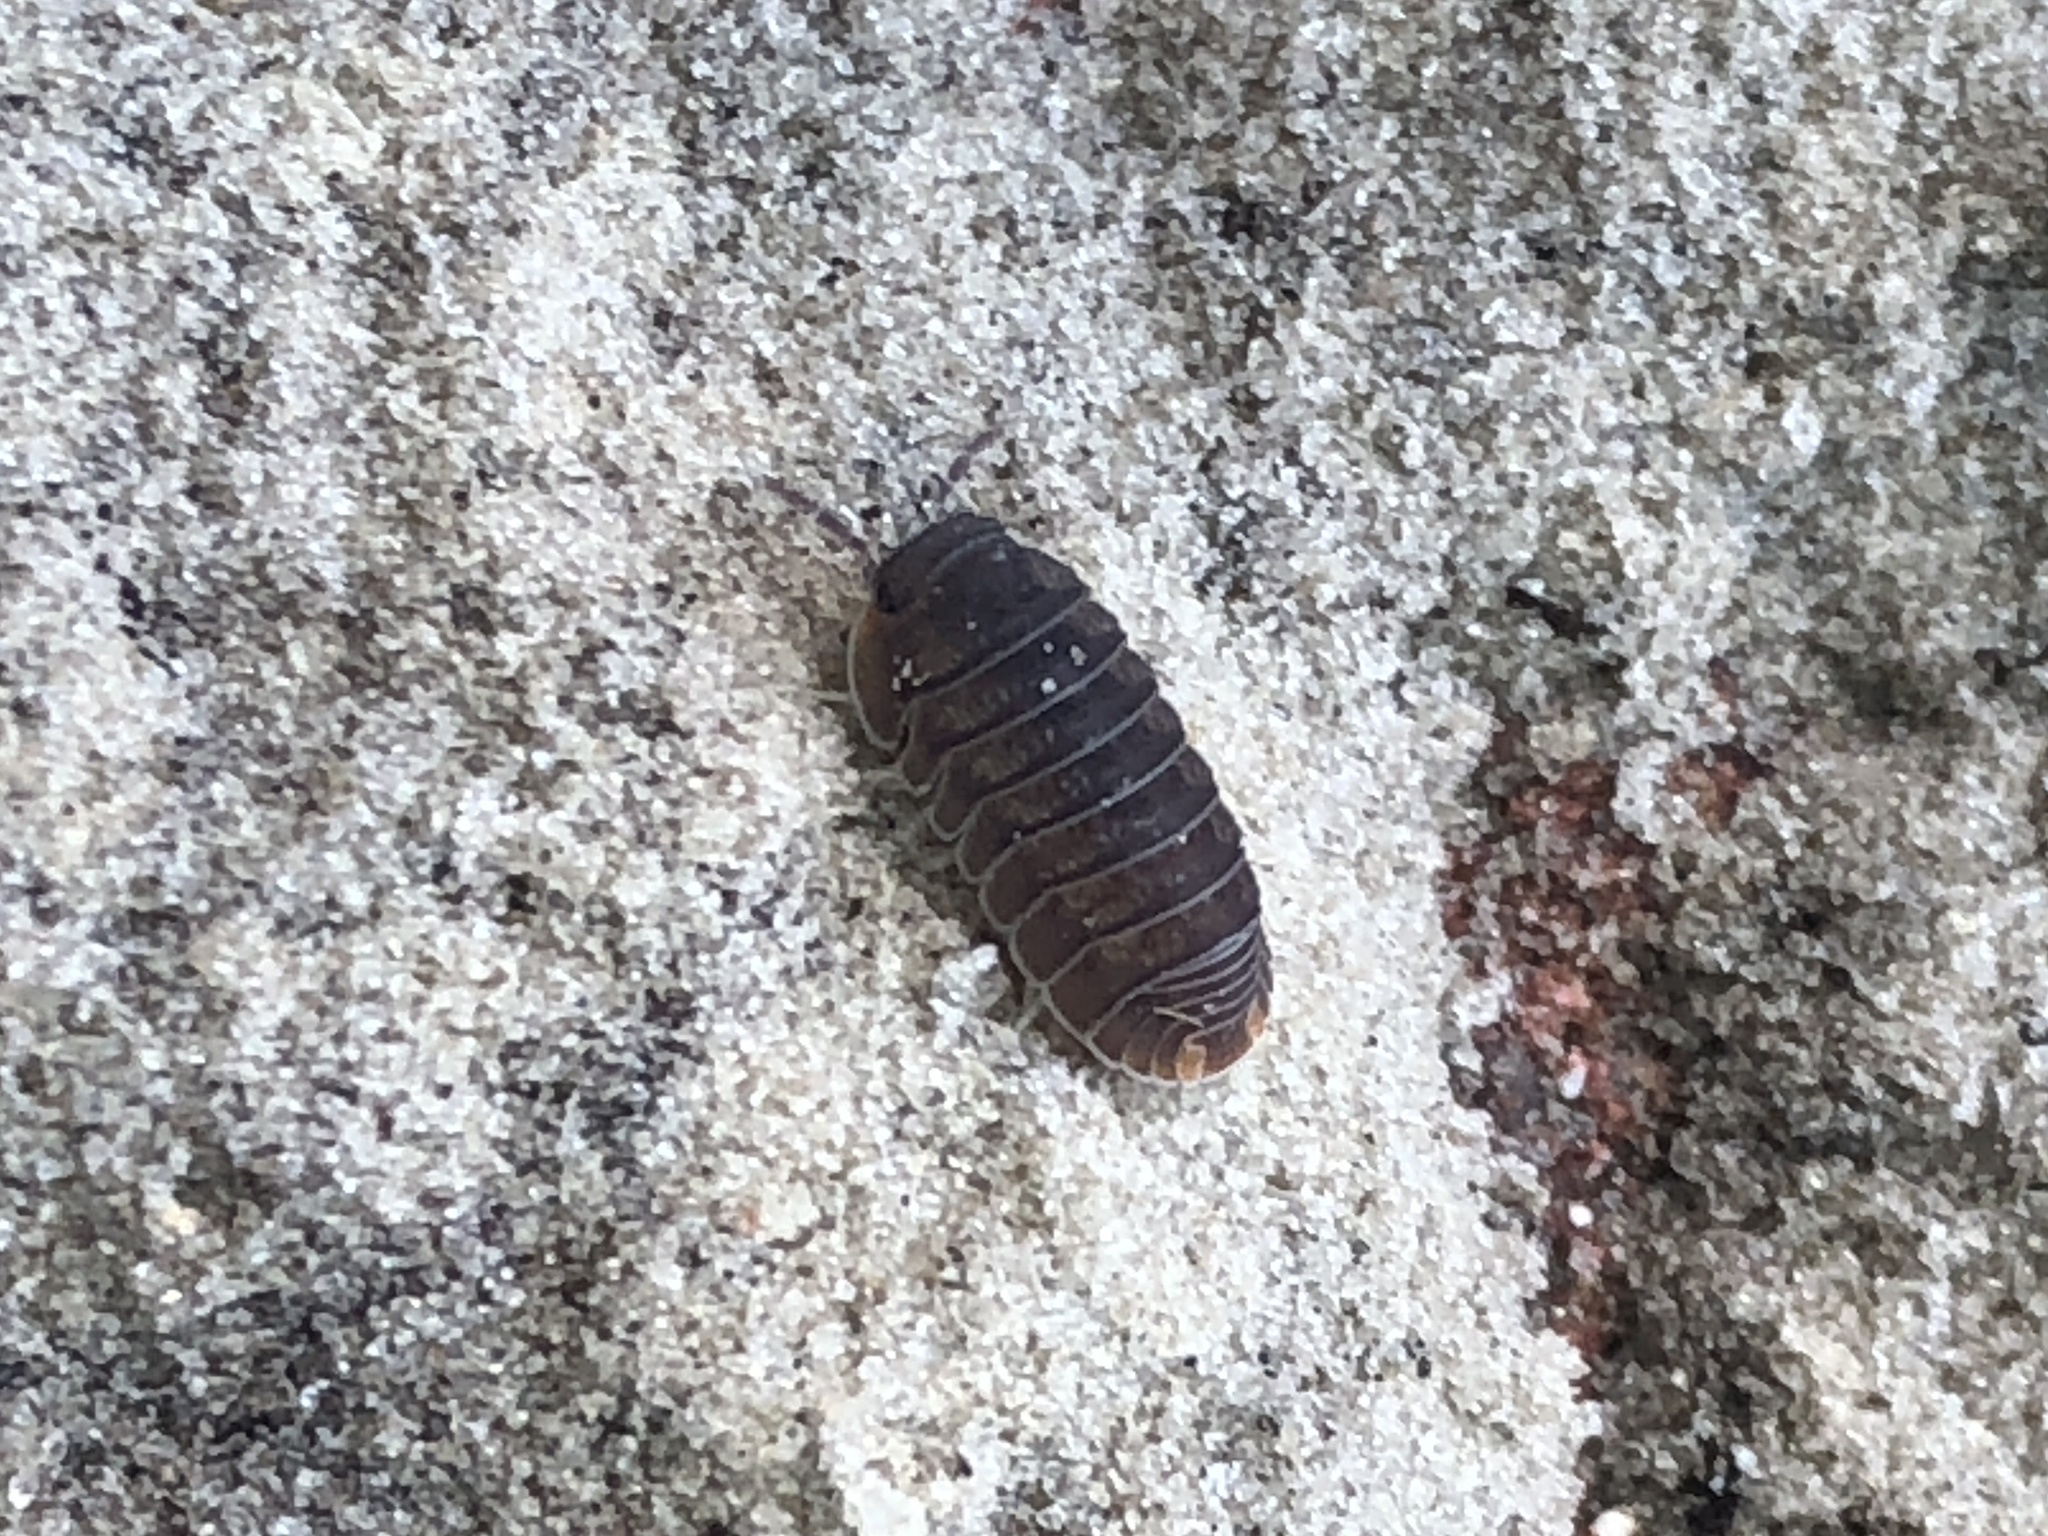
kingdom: Animalia
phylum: Arthropoda
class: Malacostraca
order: Isopoda
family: Armadillidae
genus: Cubaris
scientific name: Cubaris murina
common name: Pillbug
